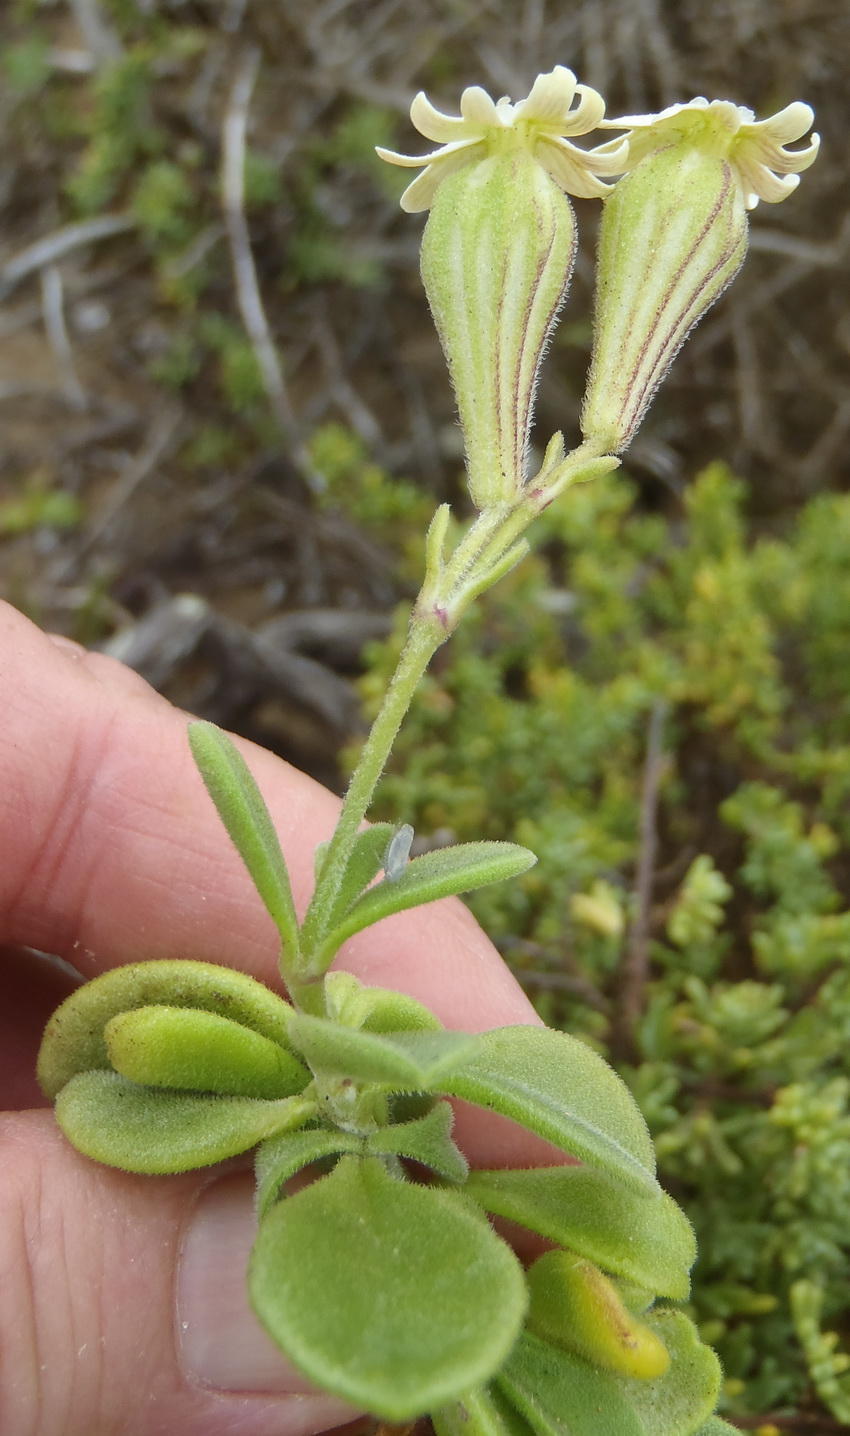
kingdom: Plantae
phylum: Tracheophyta
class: Magnoliopsida
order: Caryophyllales
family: Caryophyllaceae
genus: Silene
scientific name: Silene crassifolia
